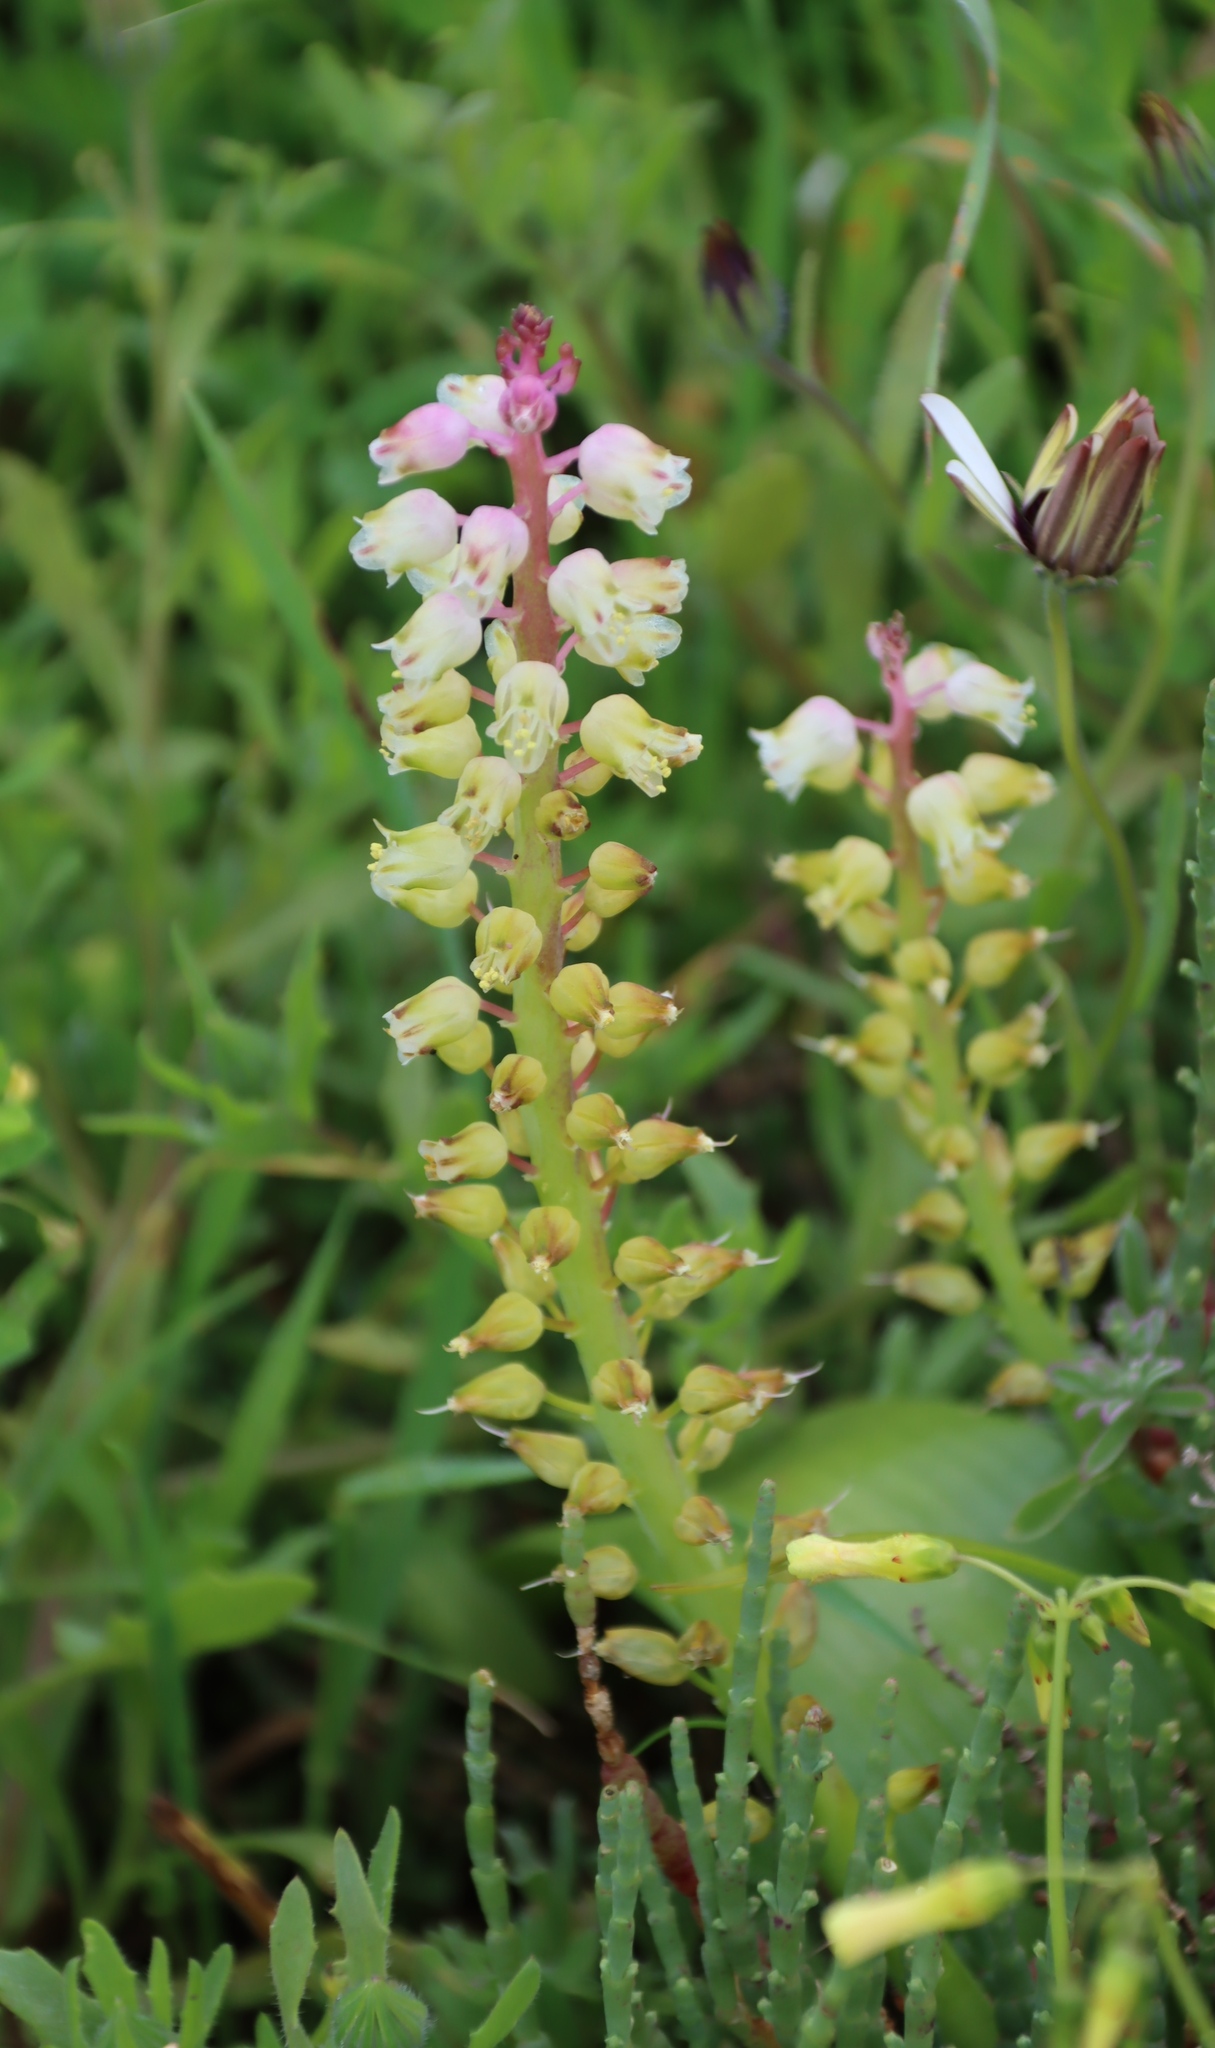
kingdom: Plantae
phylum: Tracheophyta
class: Liliopsida
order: Asparagales
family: Asparagaceae
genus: Lachenalia
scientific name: Lachenalia pallida
